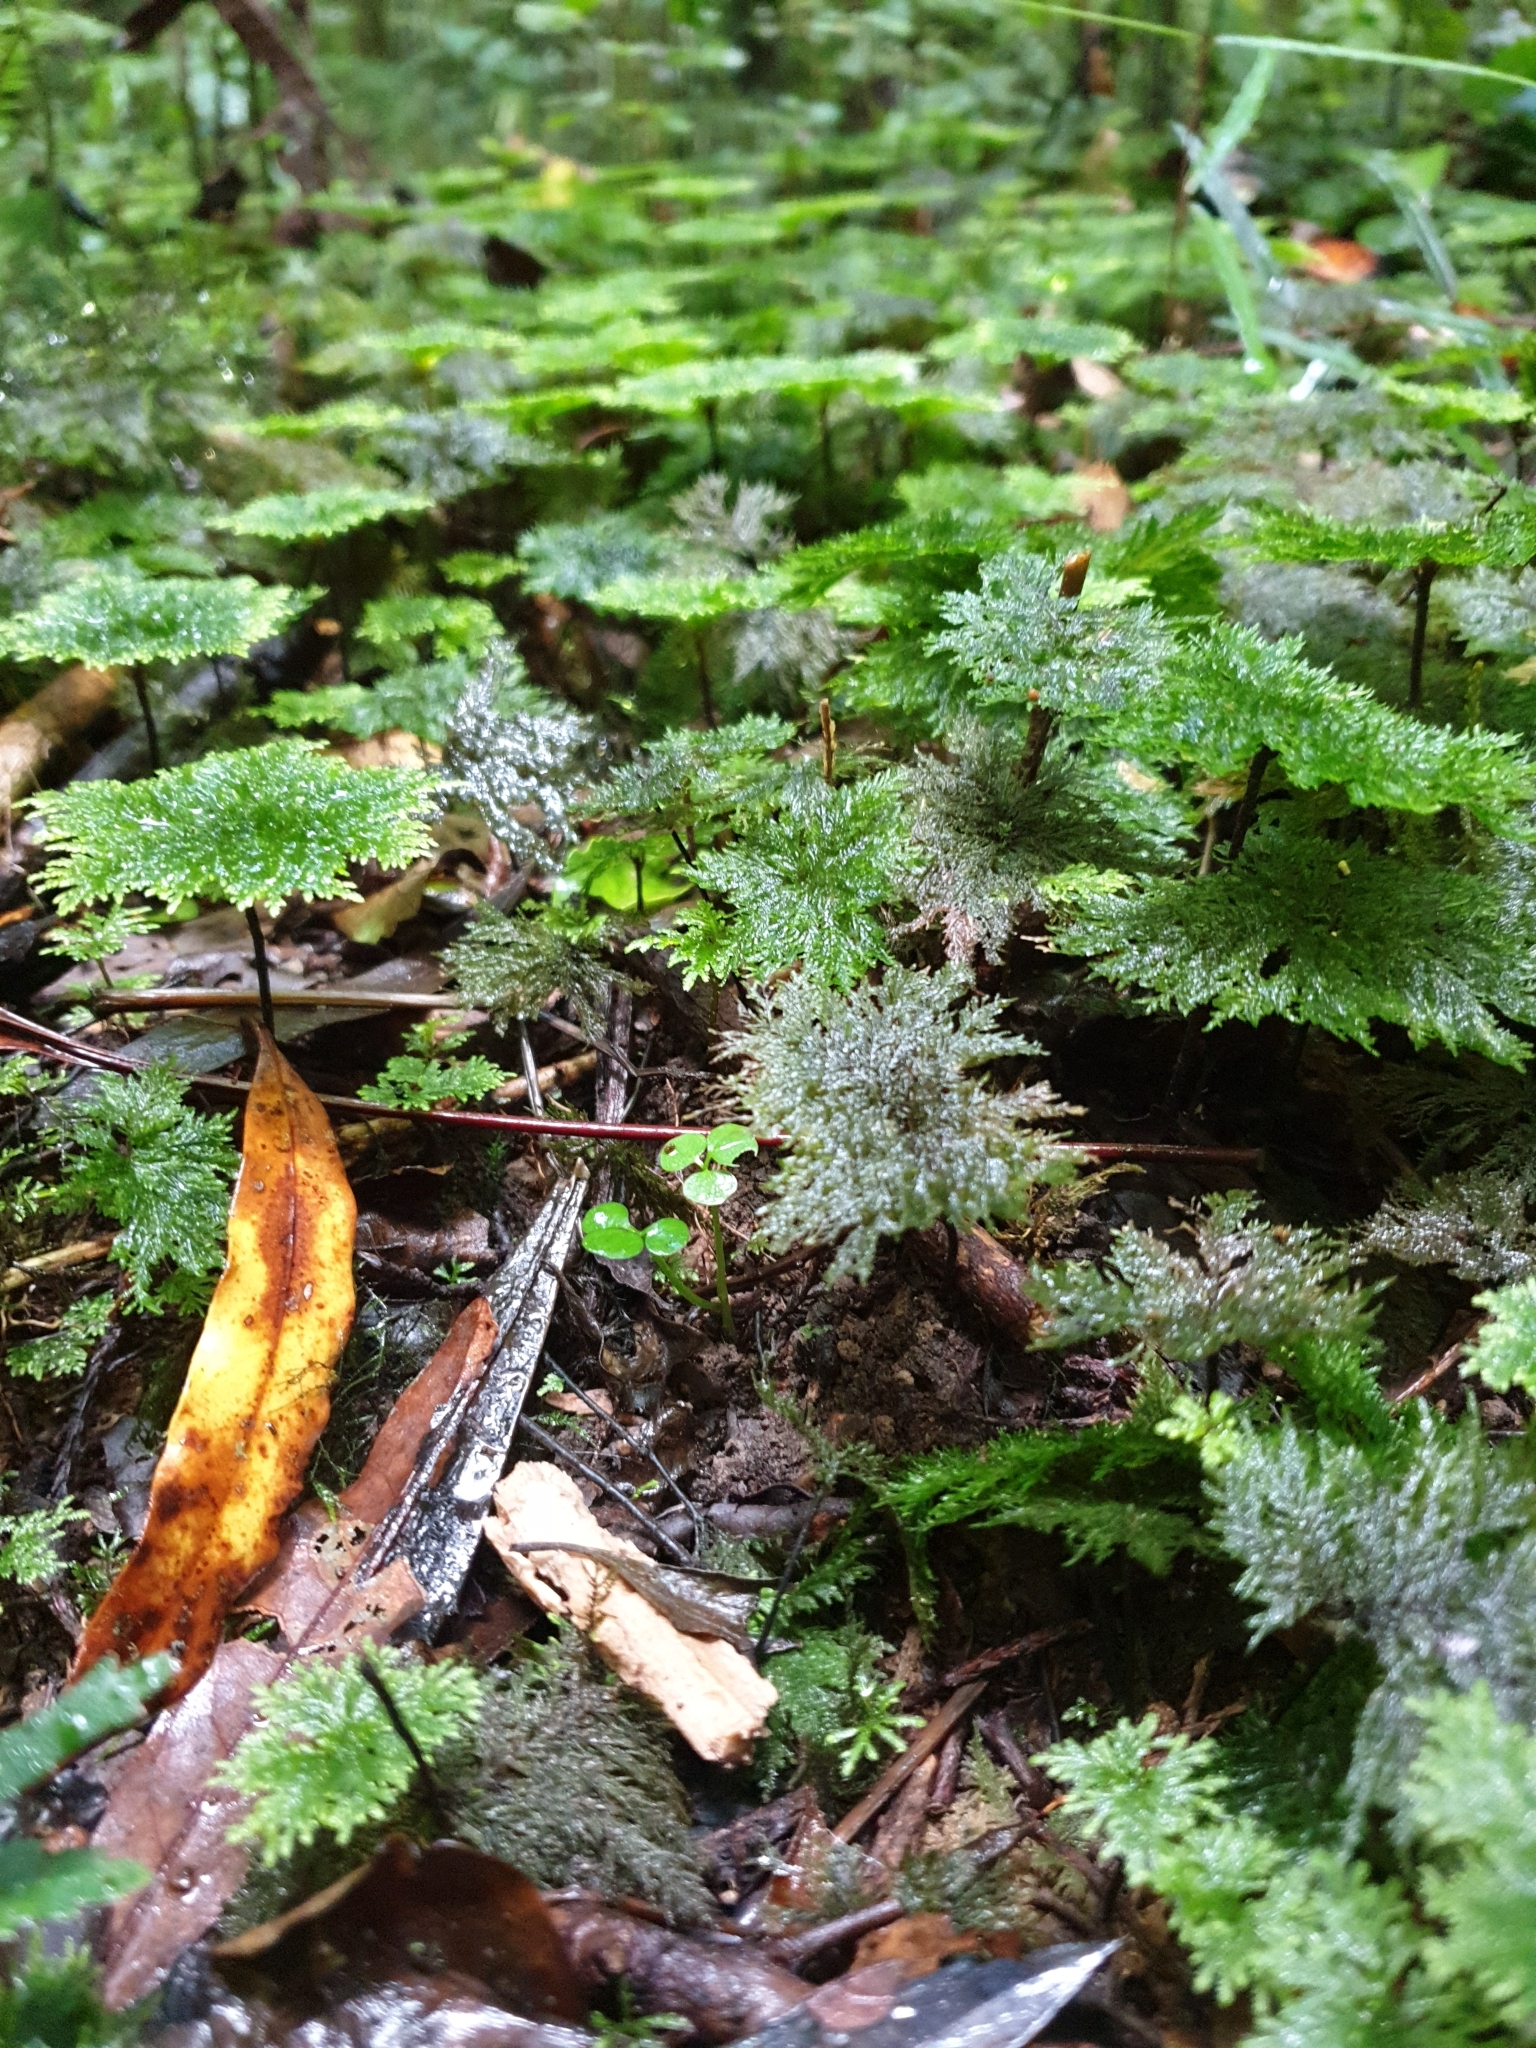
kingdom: Plantae
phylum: Bryophyta
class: Bryopsida
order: Hypopterygiales
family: Hypopterygiaceae
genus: Dendrohypopterygium
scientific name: Dendrohypopterygium filiculiforme
